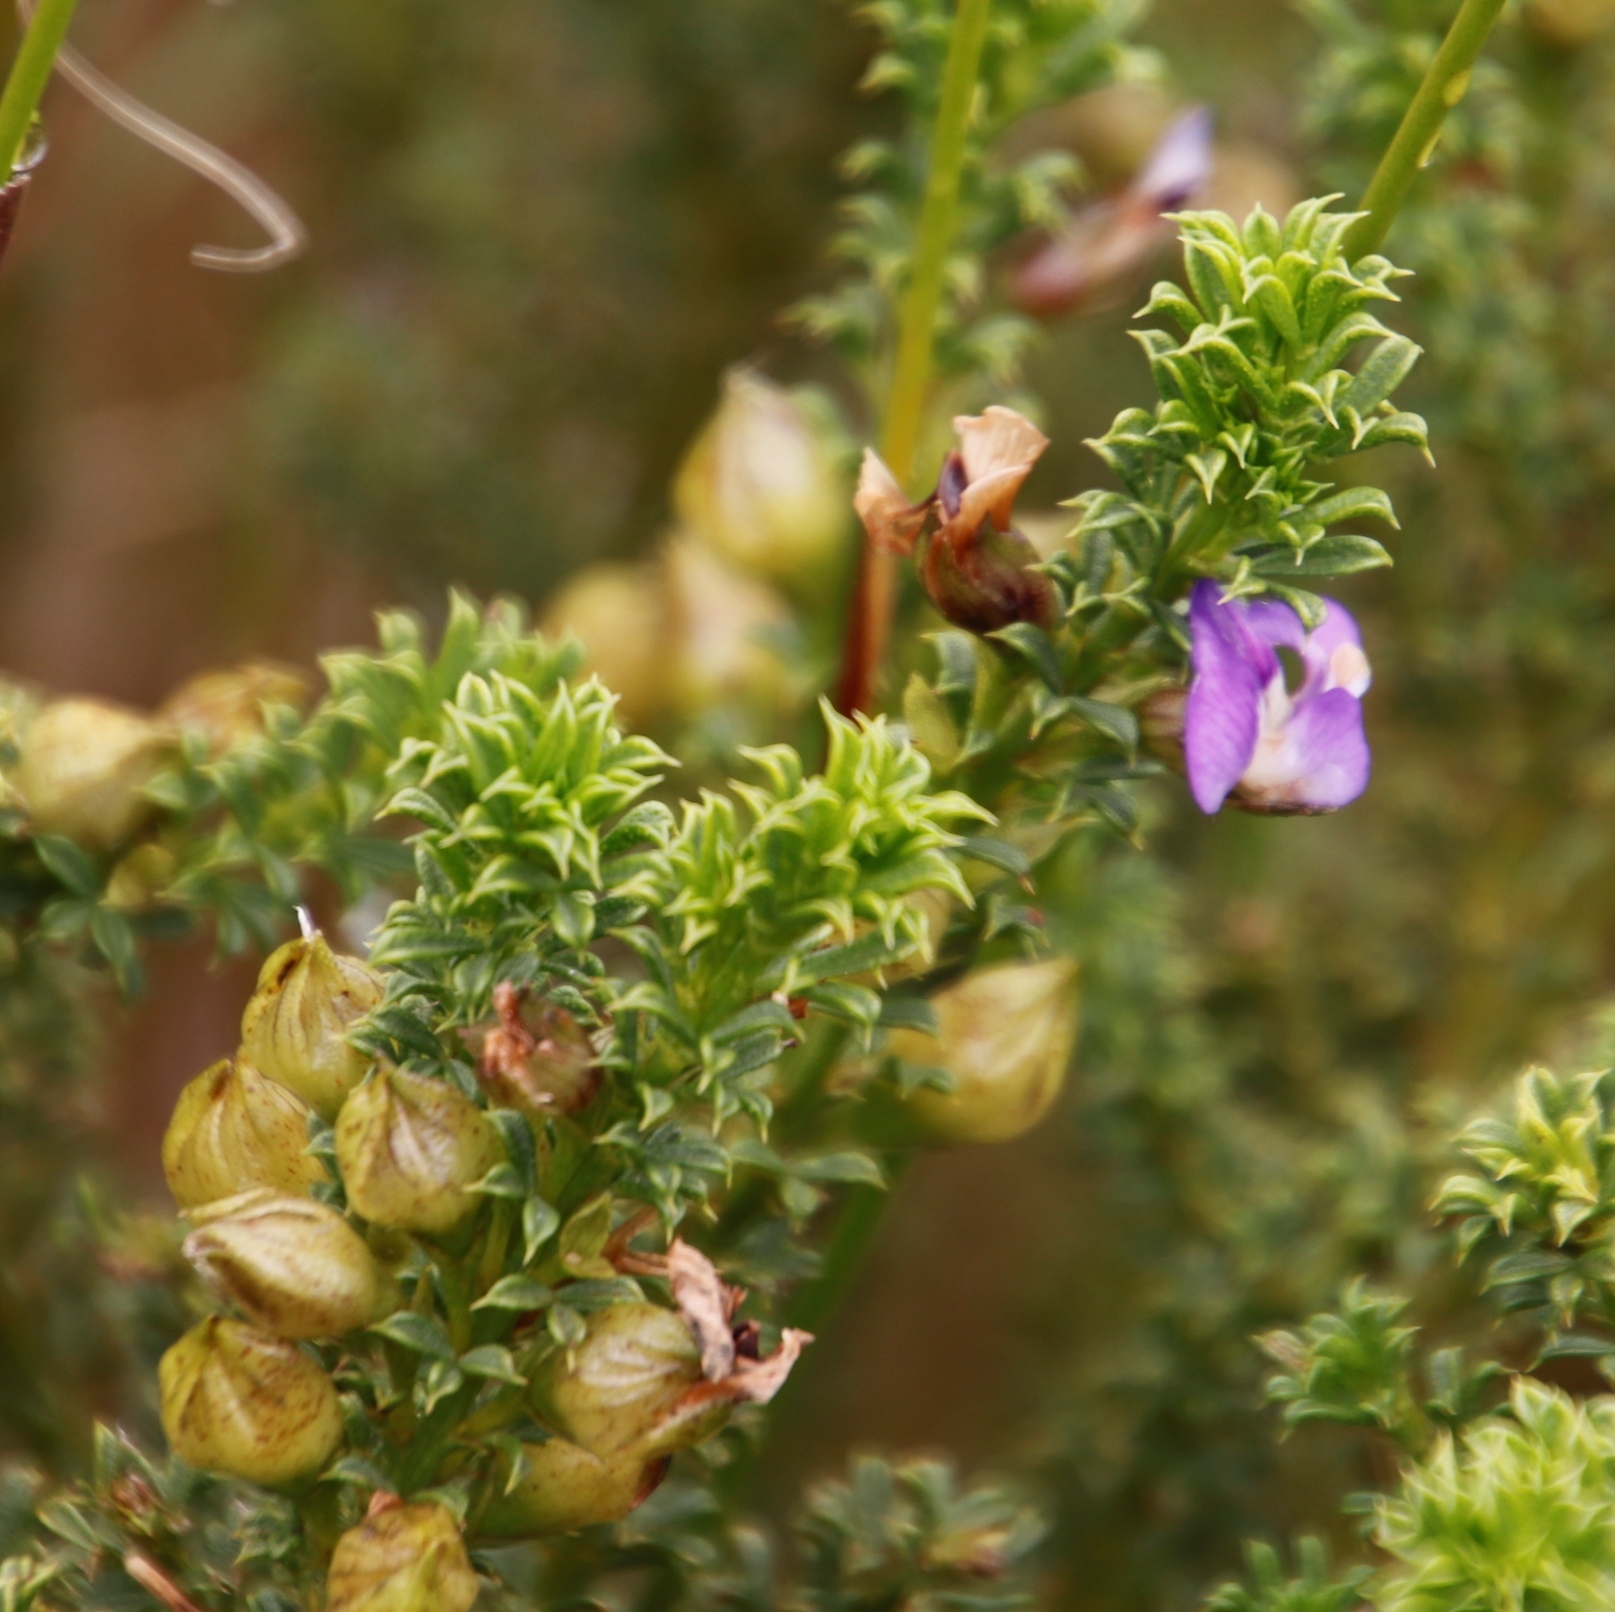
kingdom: Plantae
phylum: Tracheophyta
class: Magnoliopsida
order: Fabales
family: Fabaceae
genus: Psoralea
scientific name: Psoralea aculeata
